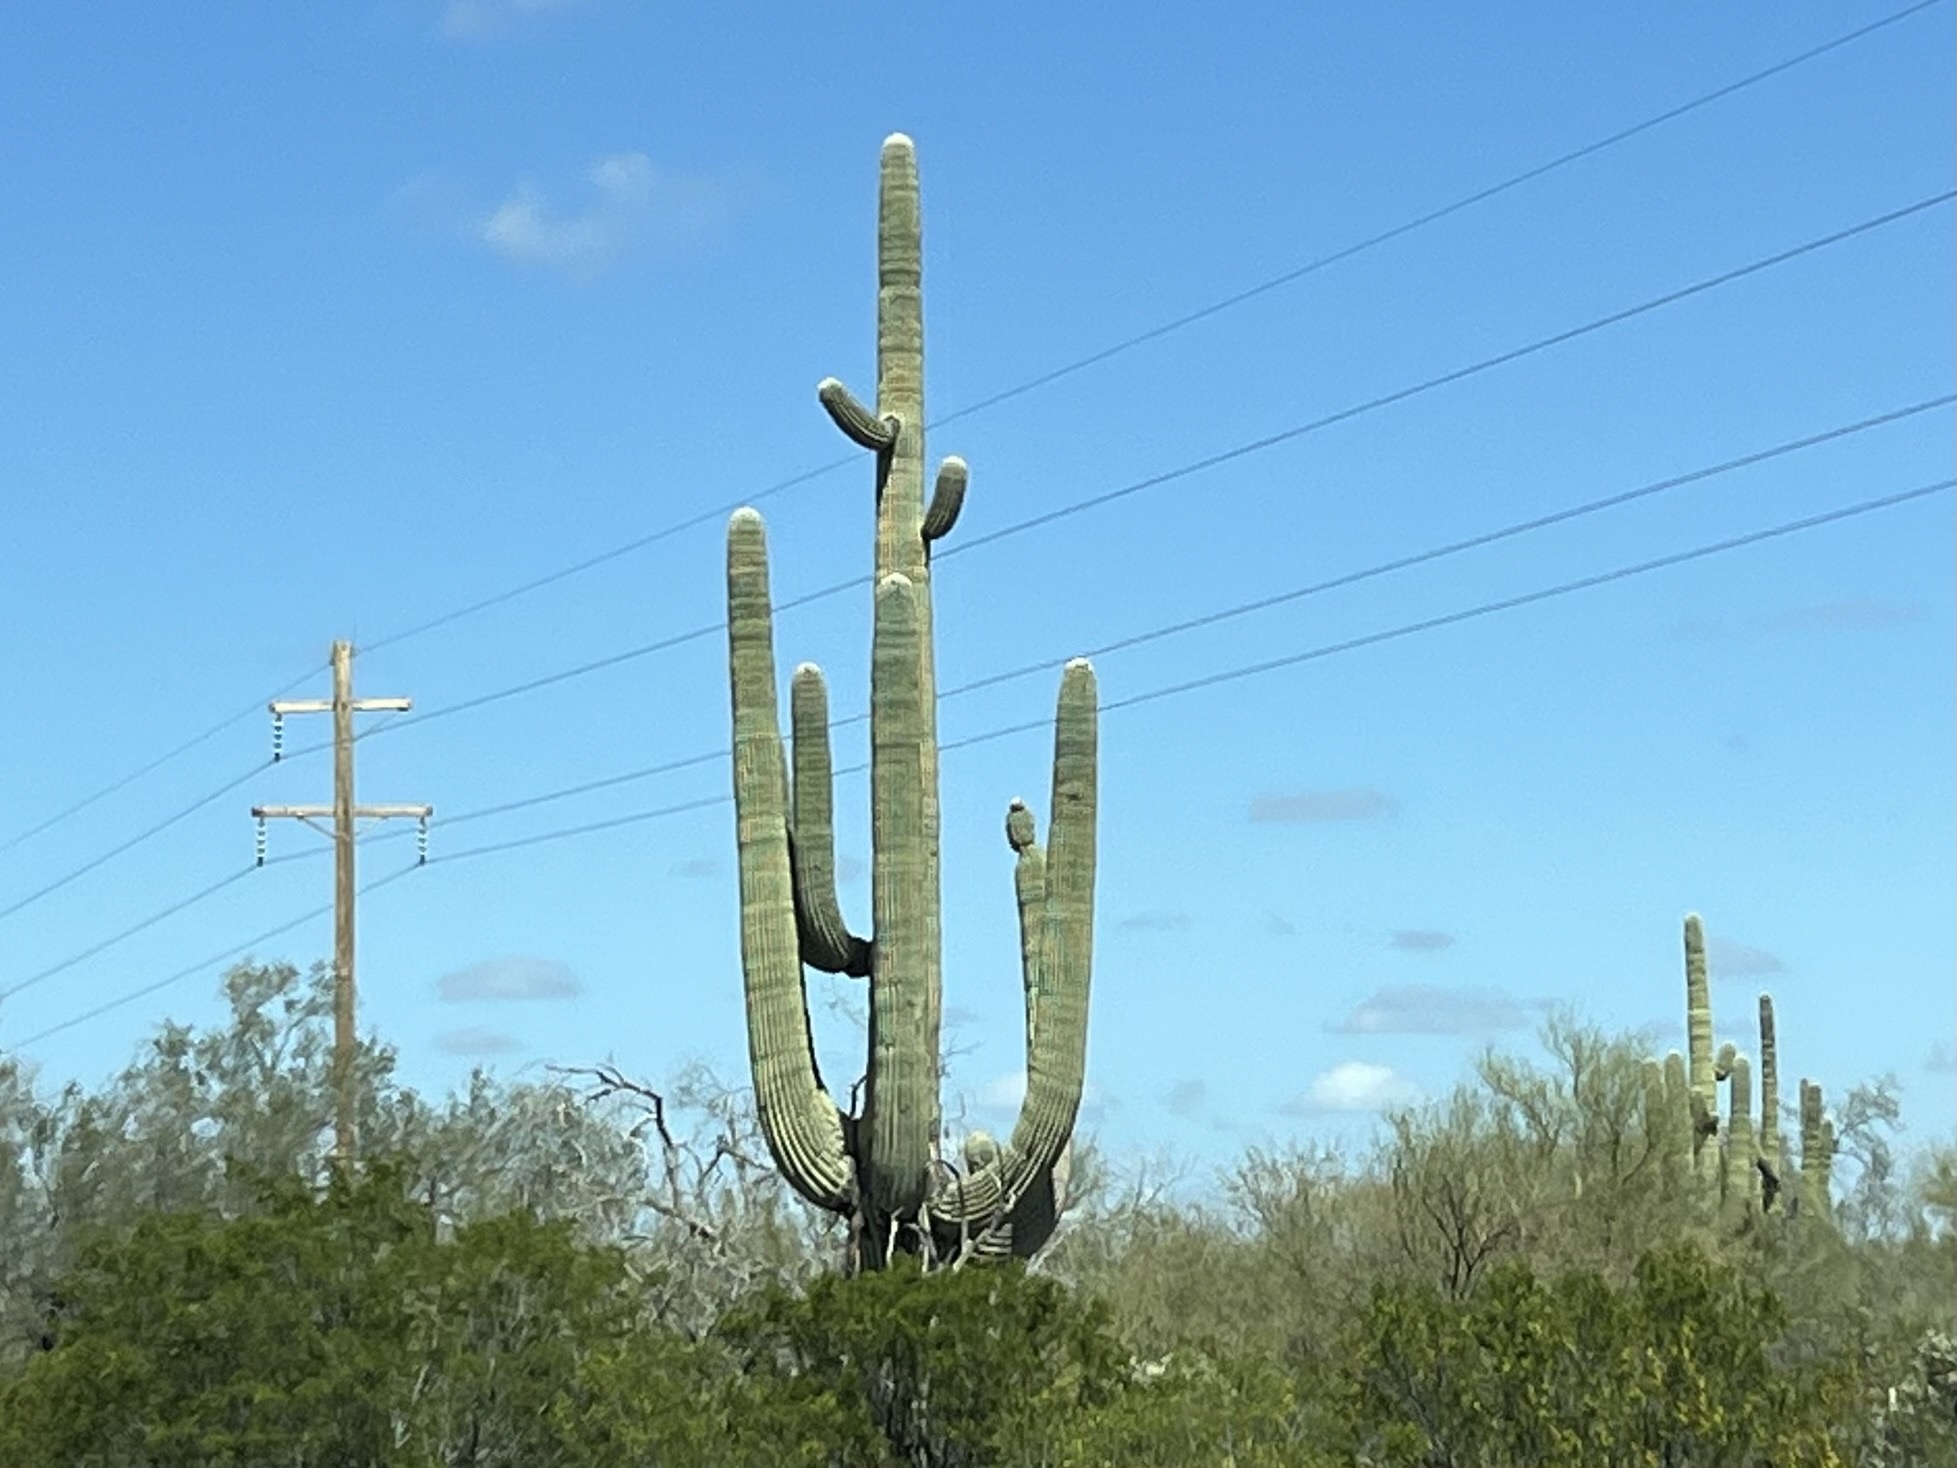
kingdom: Plantae
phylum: Tracheophyta
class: Magnoliopsida
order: Caryophyllales
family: Cactaceae
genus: Carnegiea
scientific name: Carnegiea gigantea
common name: Saguaro
